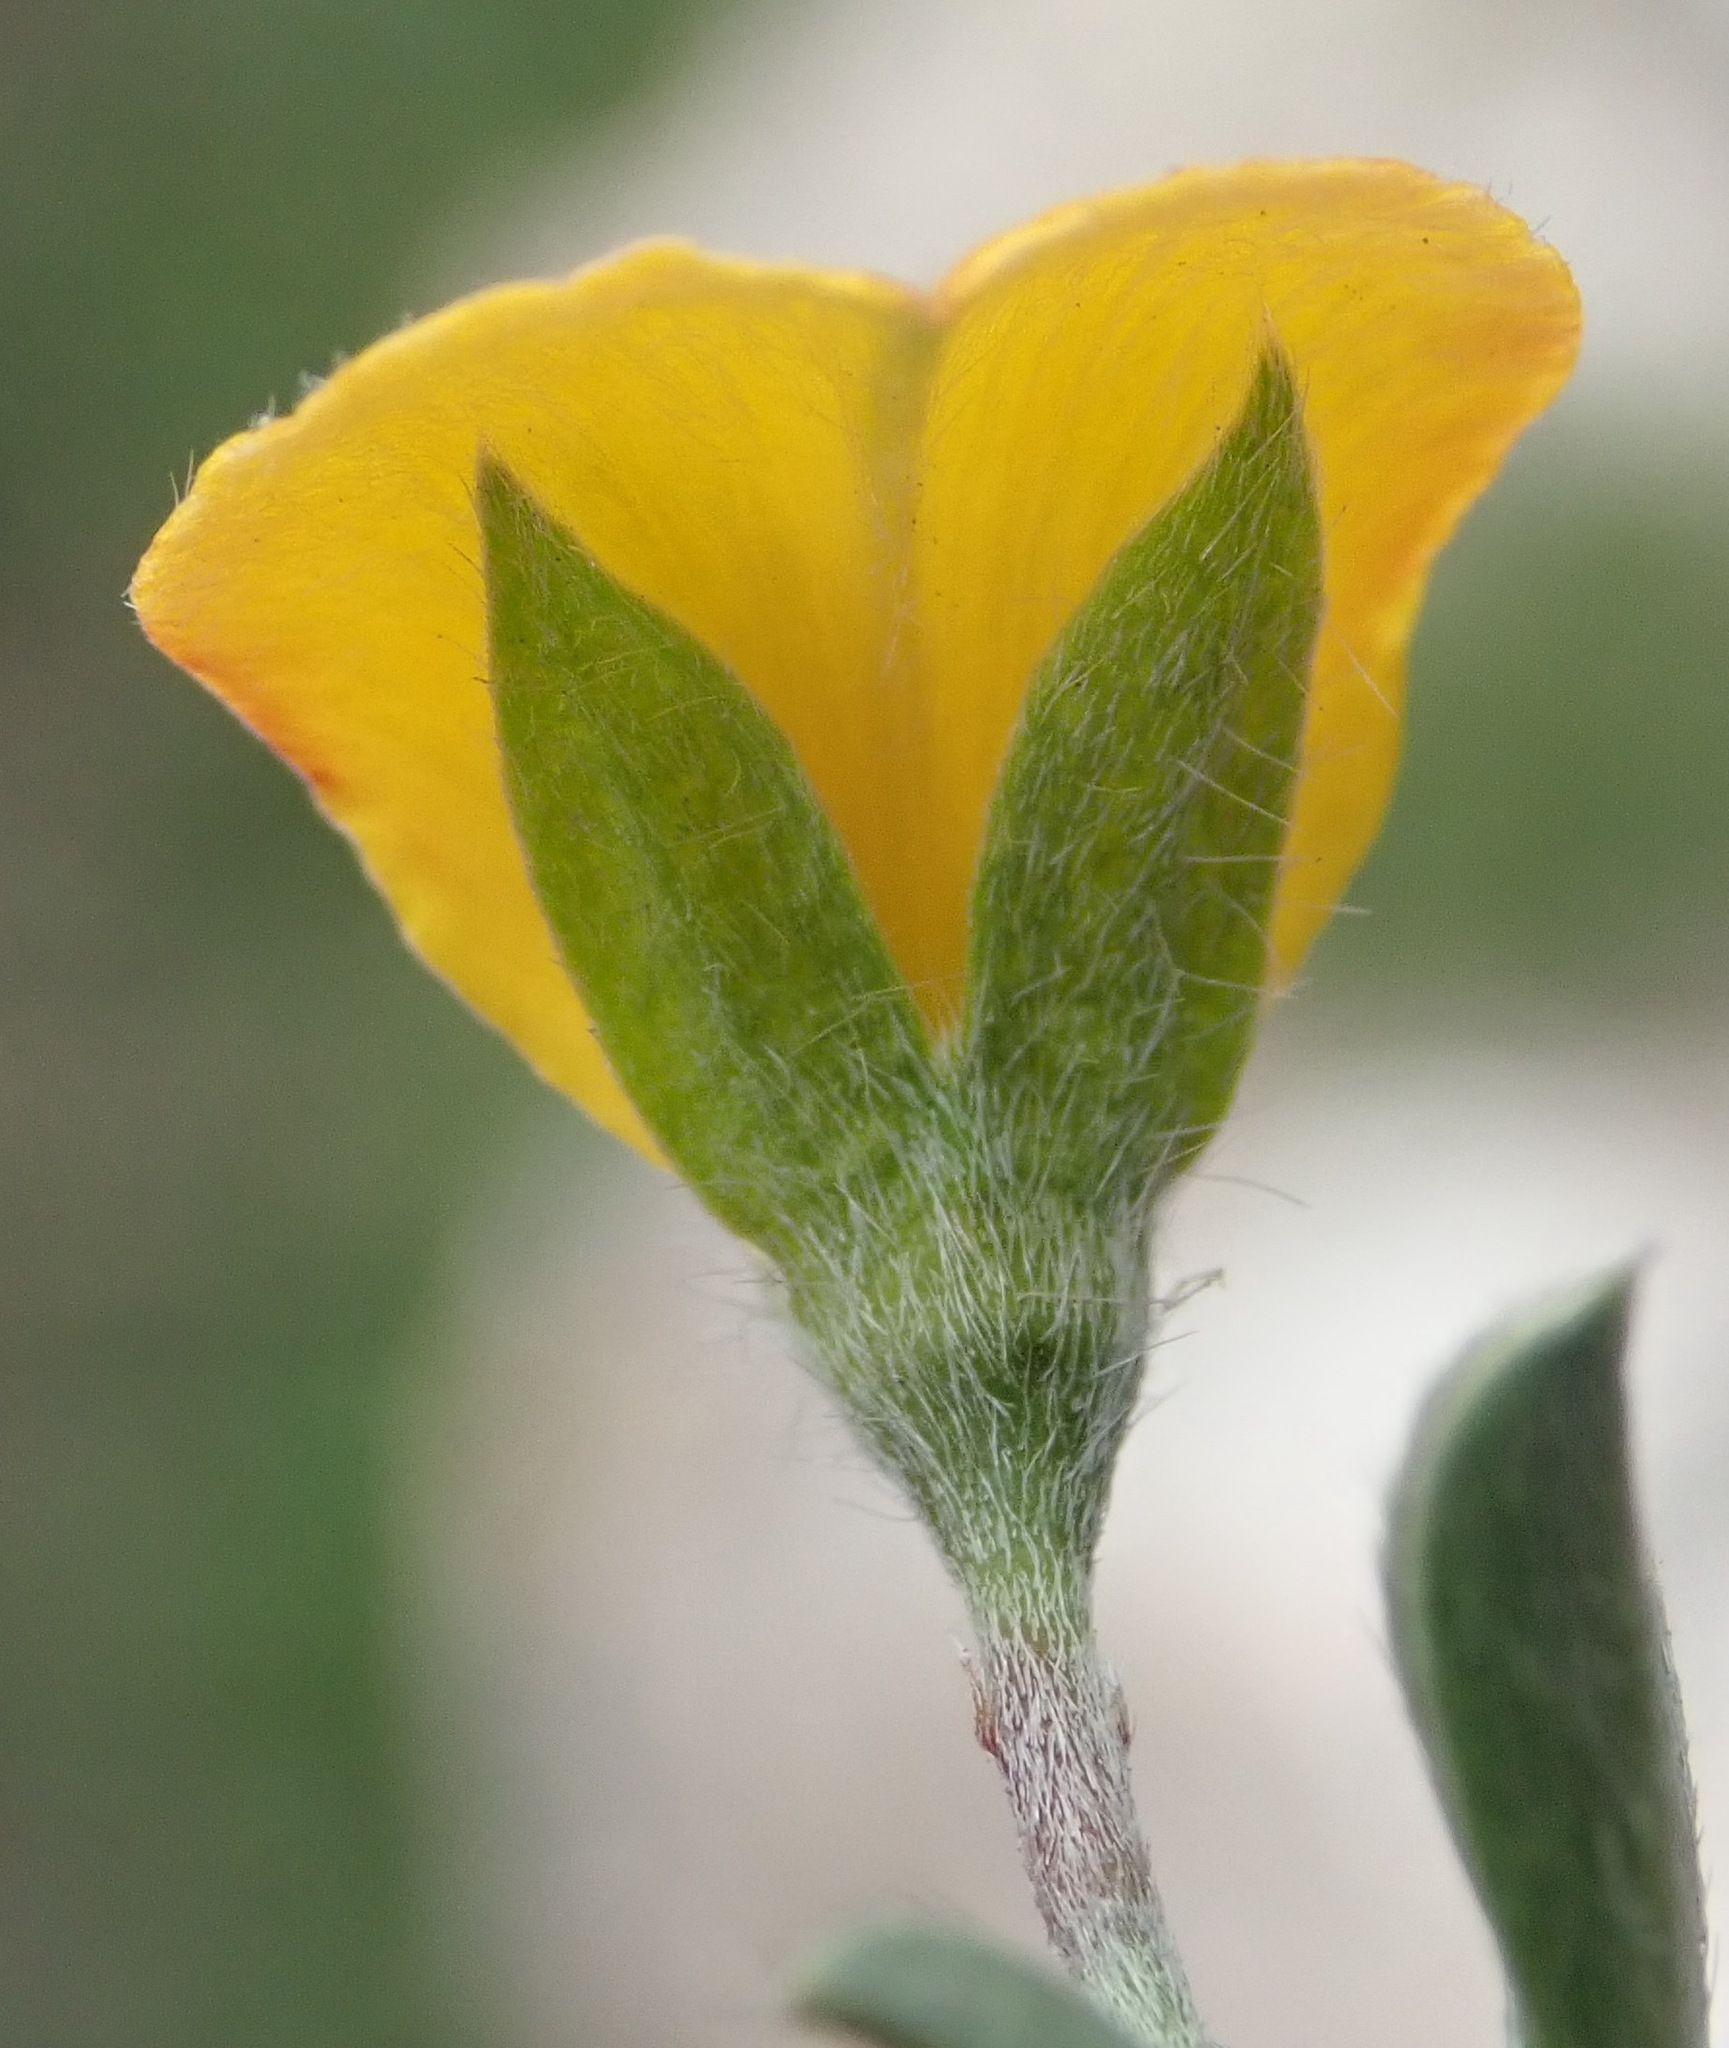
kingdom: Plantae
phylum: Tracheophyta
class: Magnoliopsida
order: Fabales
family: Fabaceae
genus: Argyrolobium
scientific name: Argyrolobium argenteum
